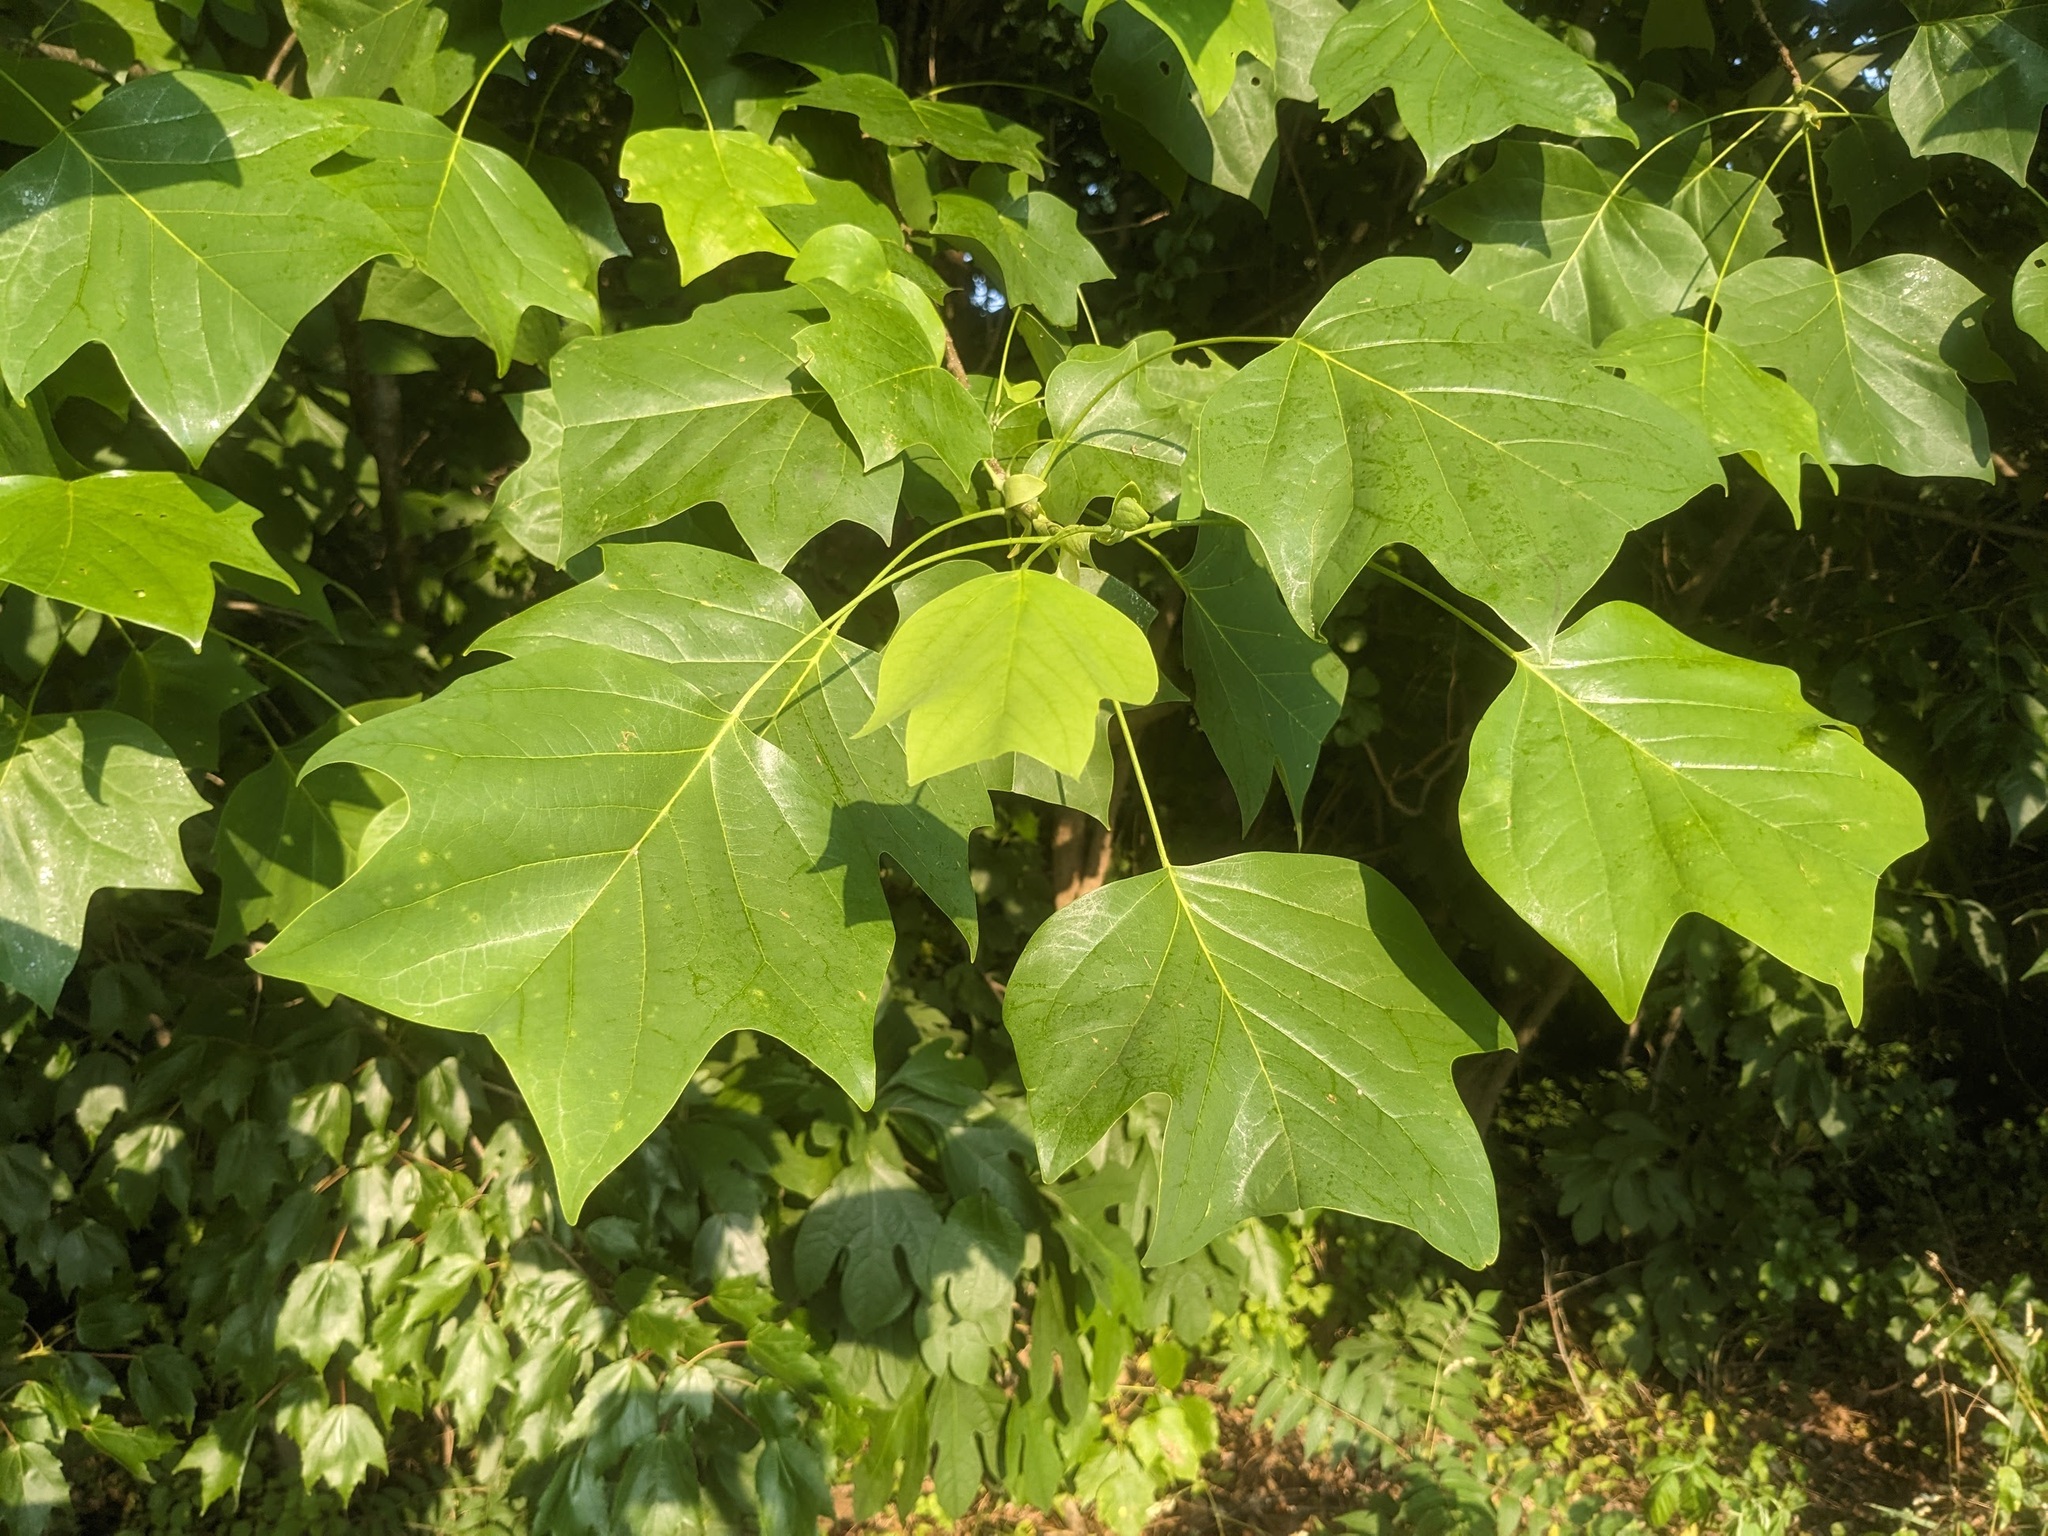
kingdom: Plantae
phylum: Tracheophyta
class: Magnoliopsida
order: Magnoliales
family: Magnoliaceae
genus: Liriodendron
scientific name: Liriodendron tulipifera
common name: Tulip tree
